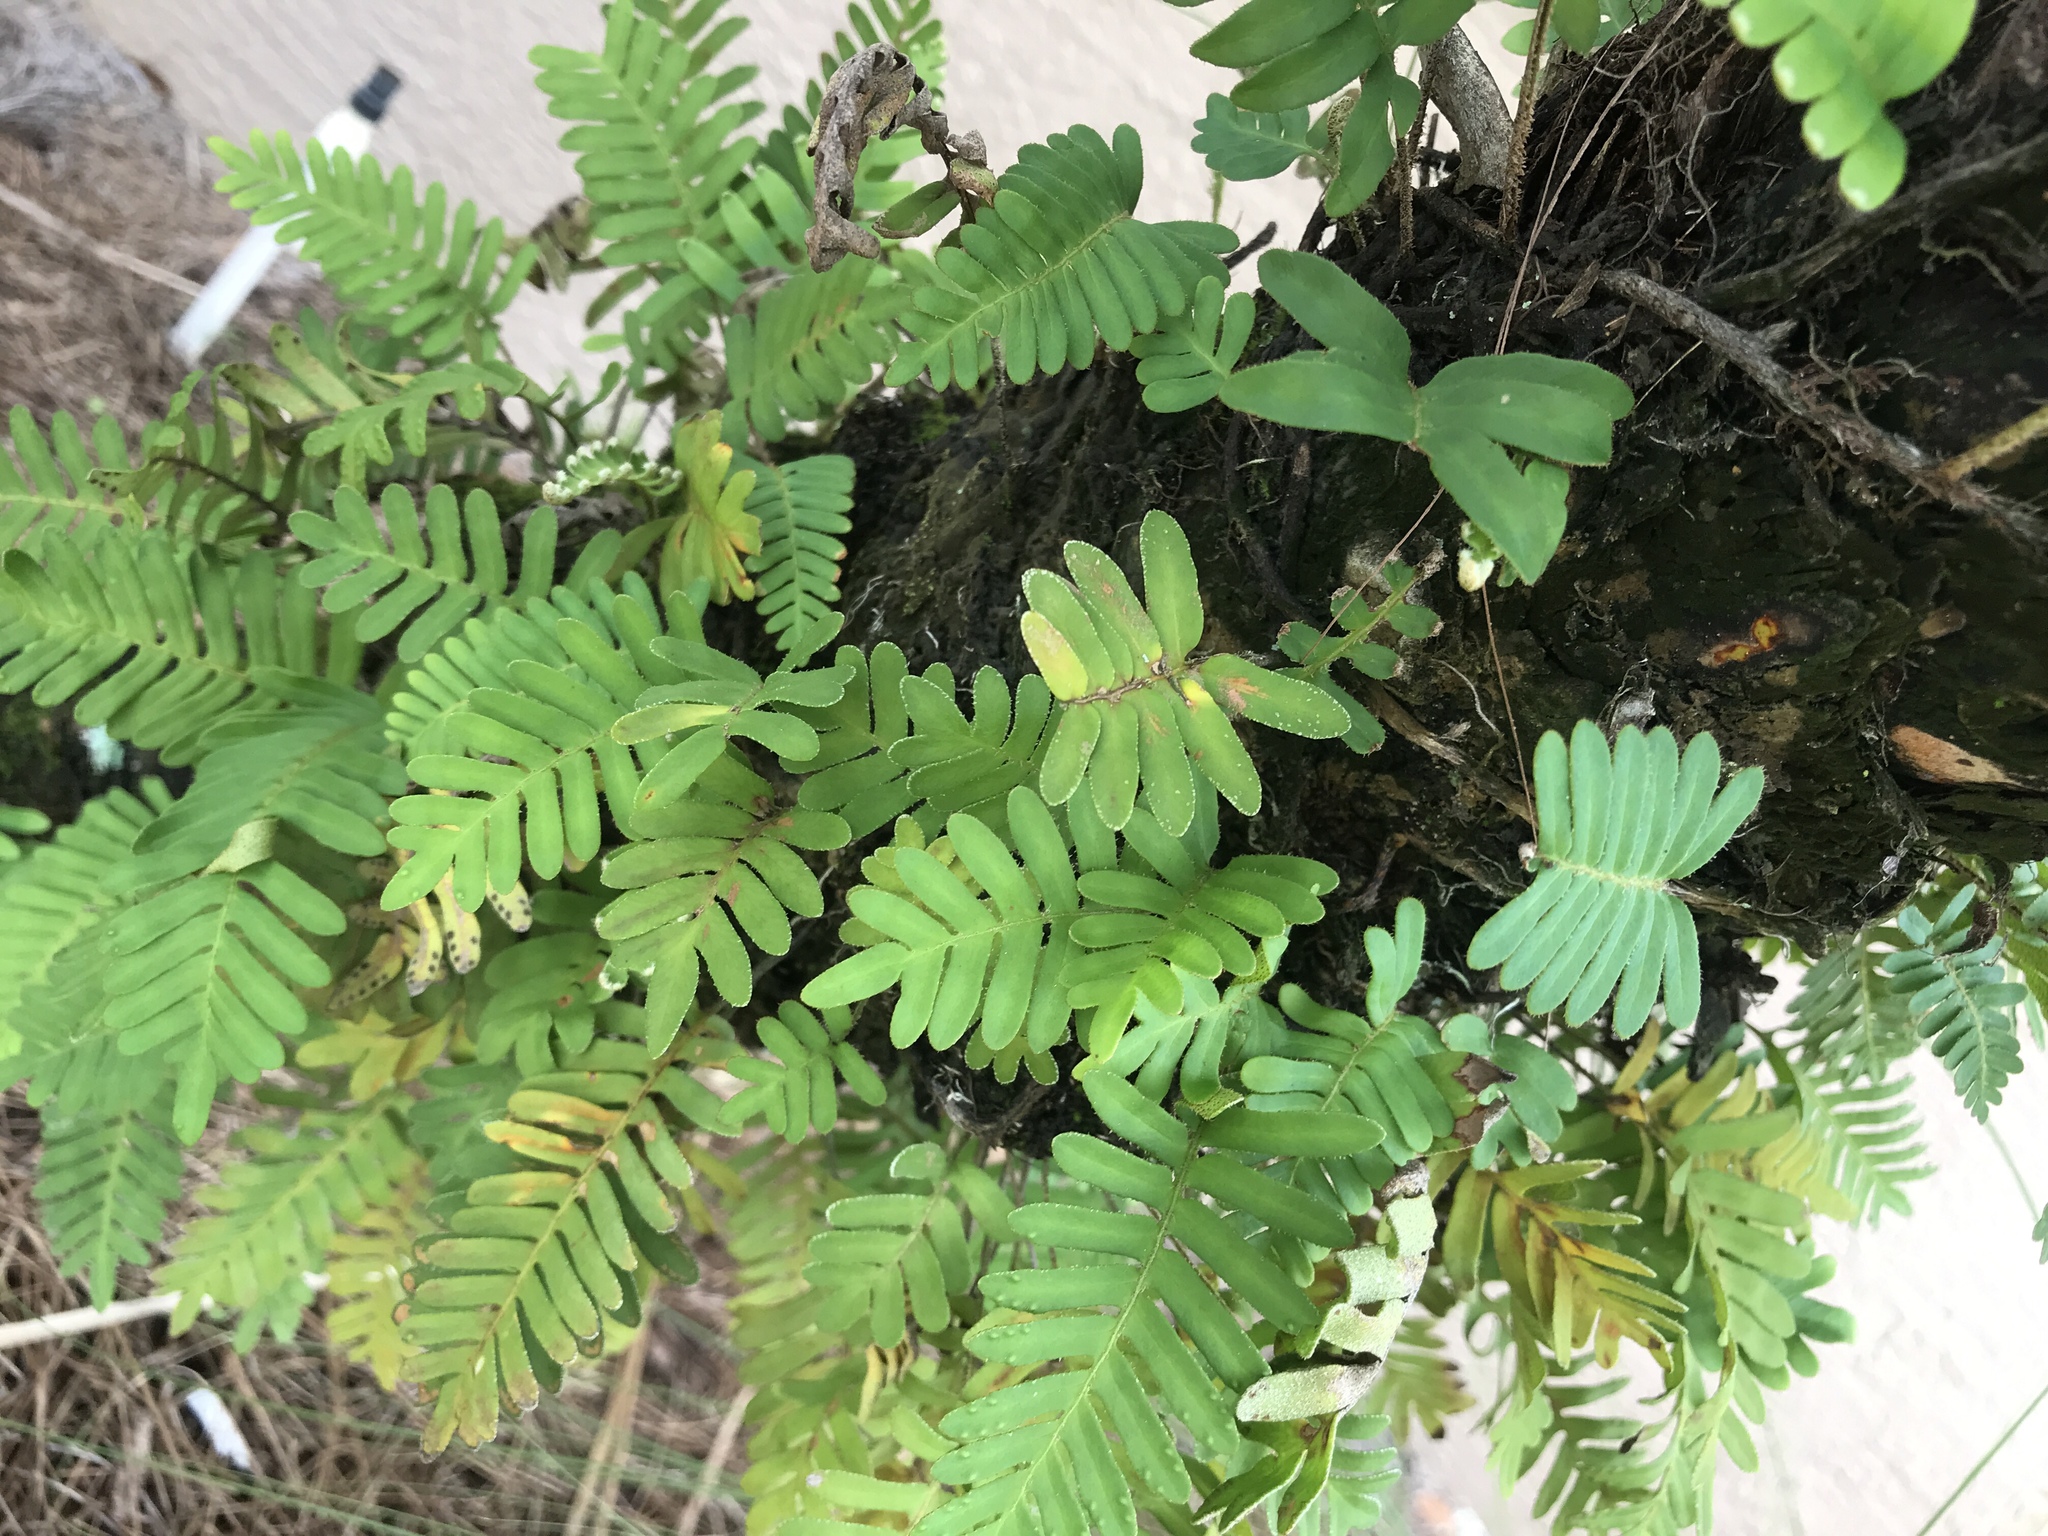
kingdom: Plantae
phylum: Tracheophyta
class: Polypodiopsida
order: Polypodiales
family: Polypodiaceae
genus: Pleopeltis
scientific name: Pleopeltis michauxiana
